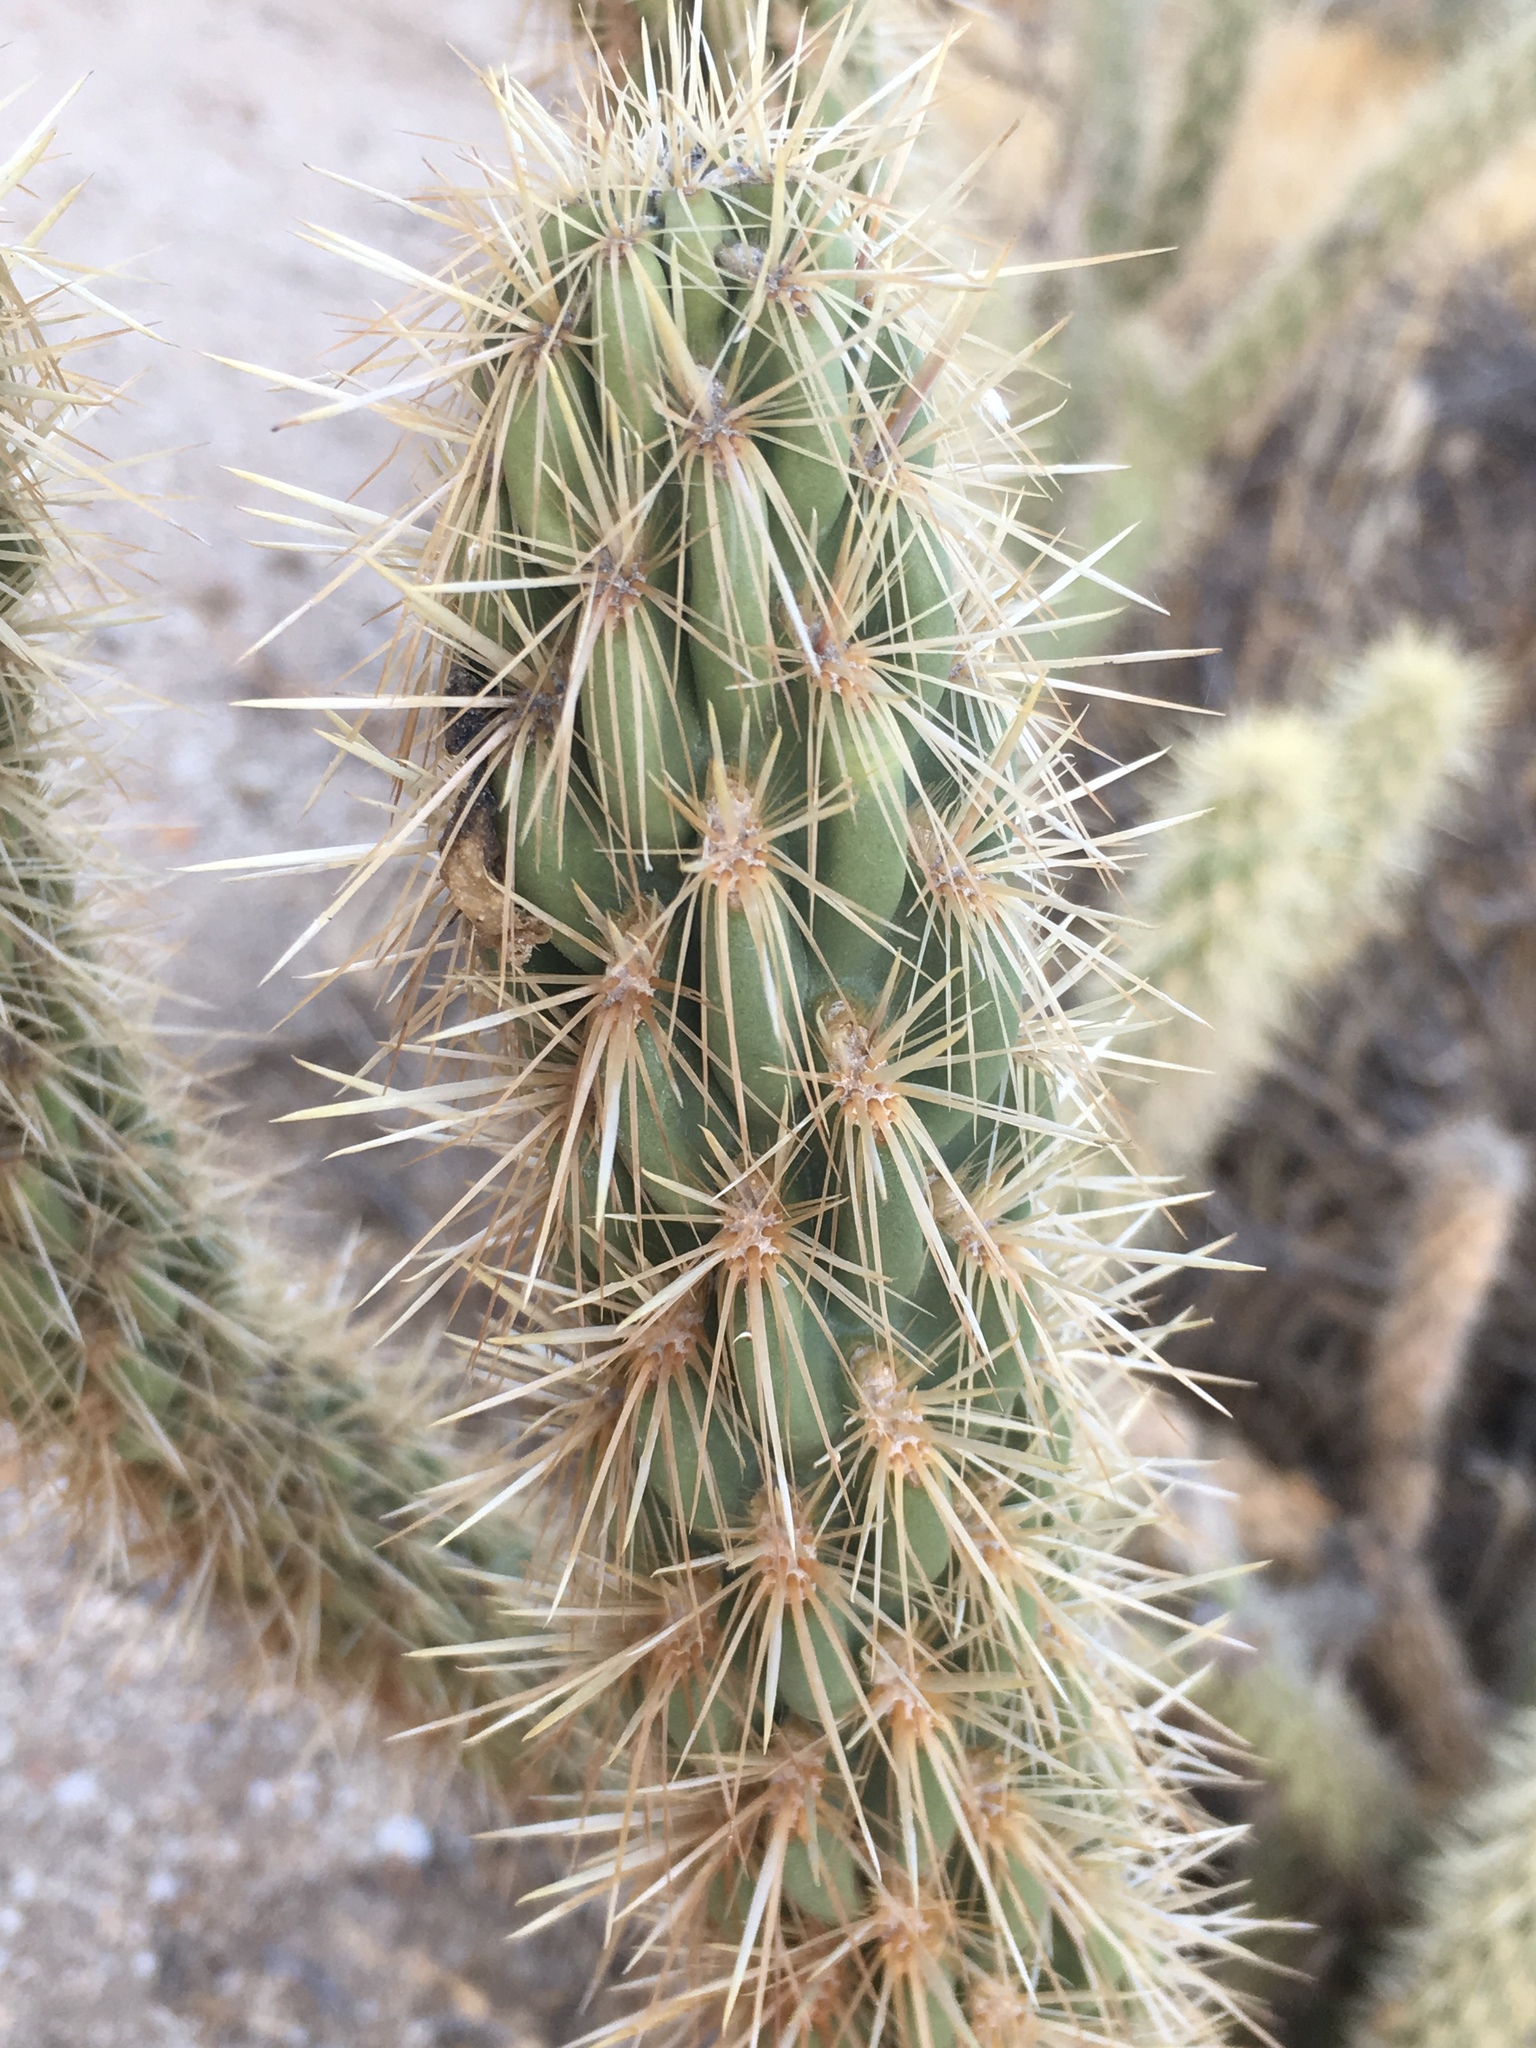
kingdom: Plantae
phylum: Tracheophyta
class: Magnoliopsida
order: Caryophyllales
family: Cactaceae
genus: Cylindropuntia
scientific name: Cylindropuntia ganderi
